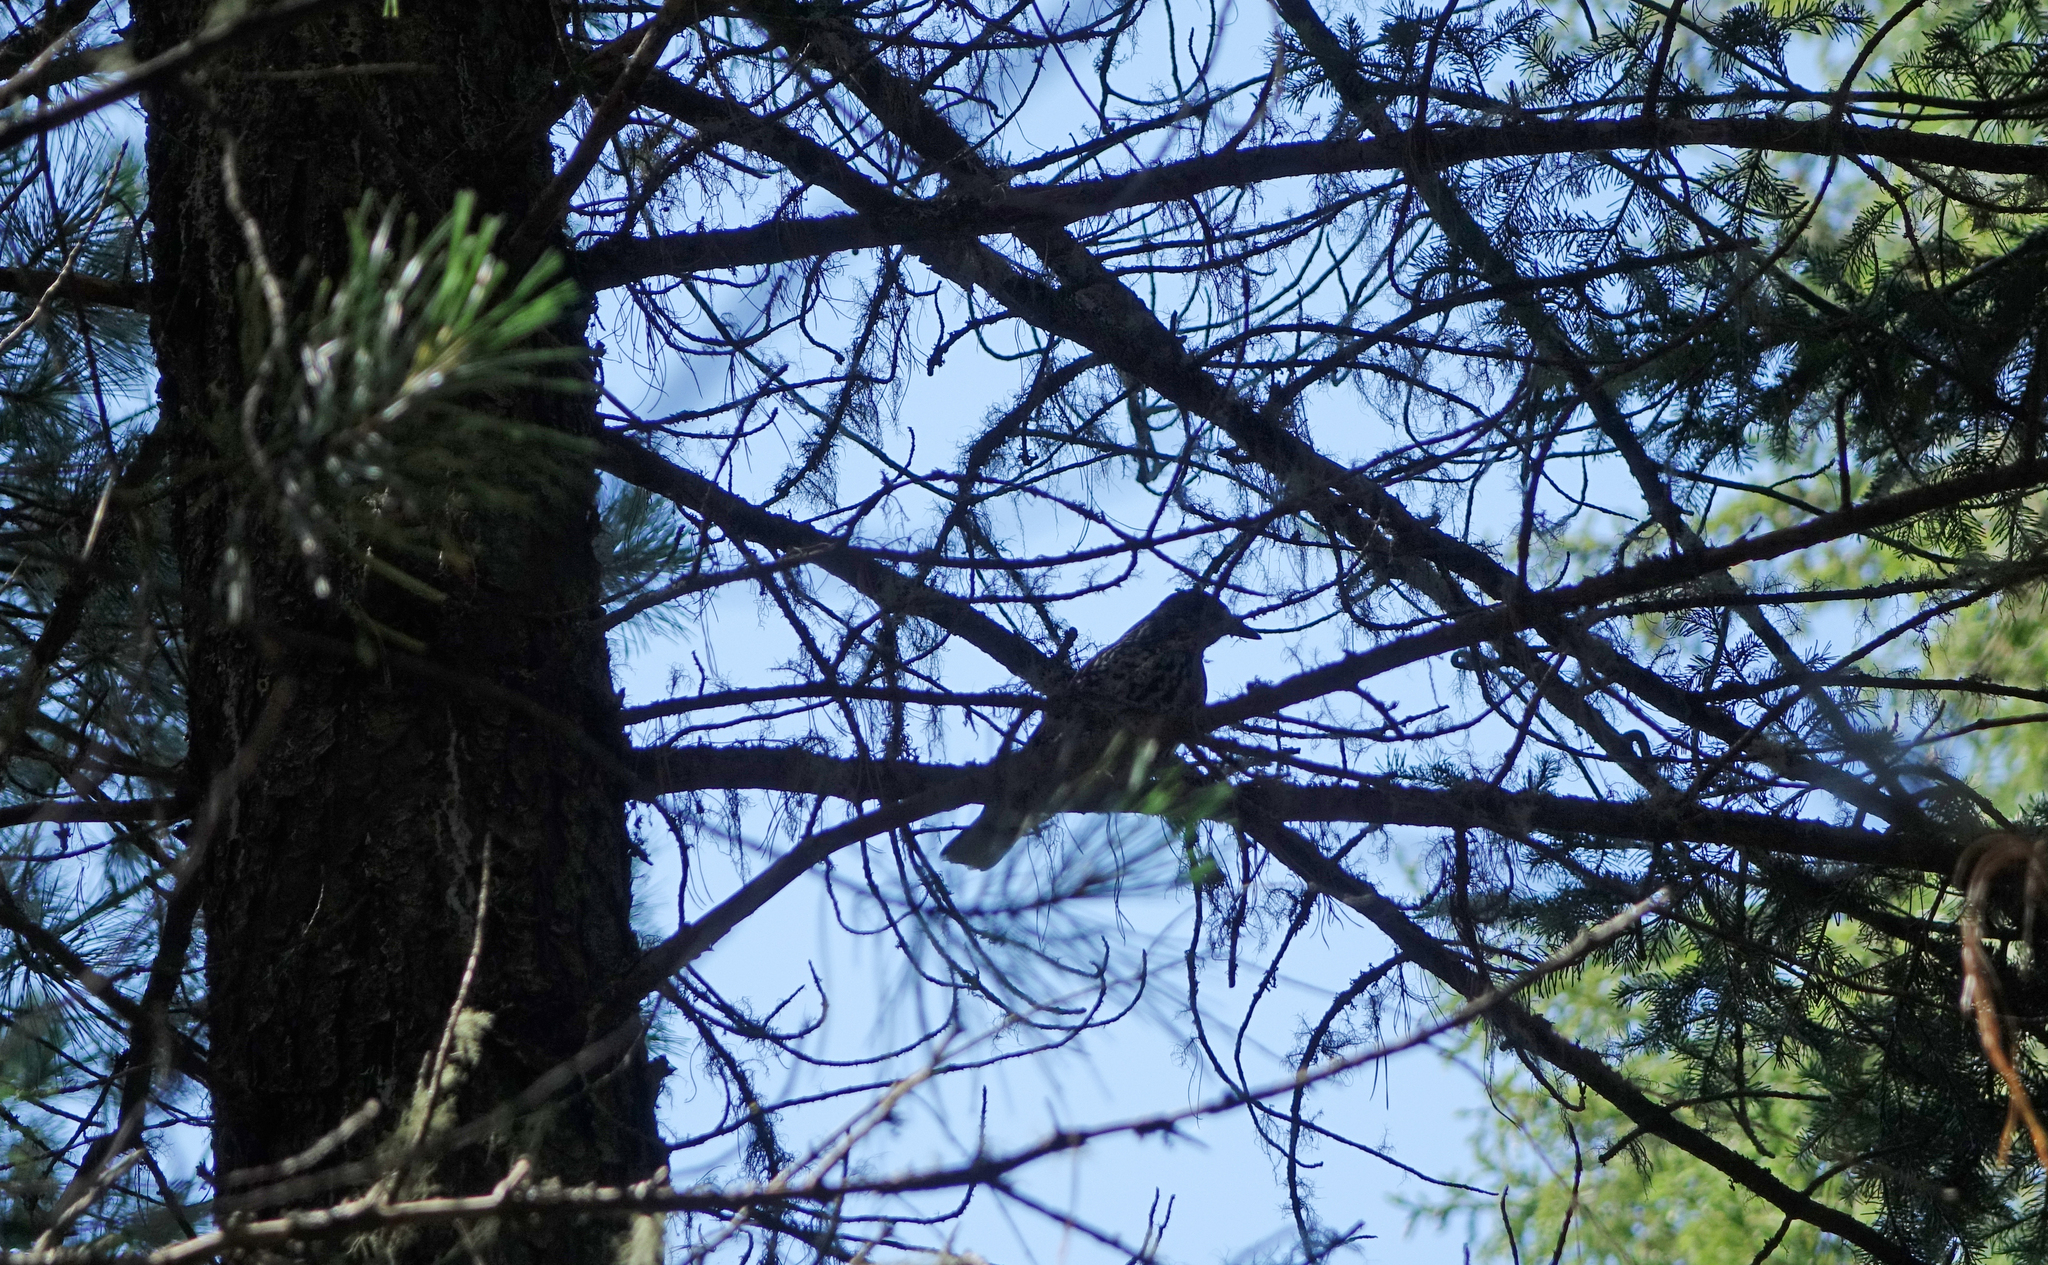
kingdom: Animalia
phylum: Chordata
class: Aves
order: Passeriformes
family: Corvidae
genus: Nucifraga
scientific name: Nucifraga caryocatactes
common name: Spotted nutcracker
